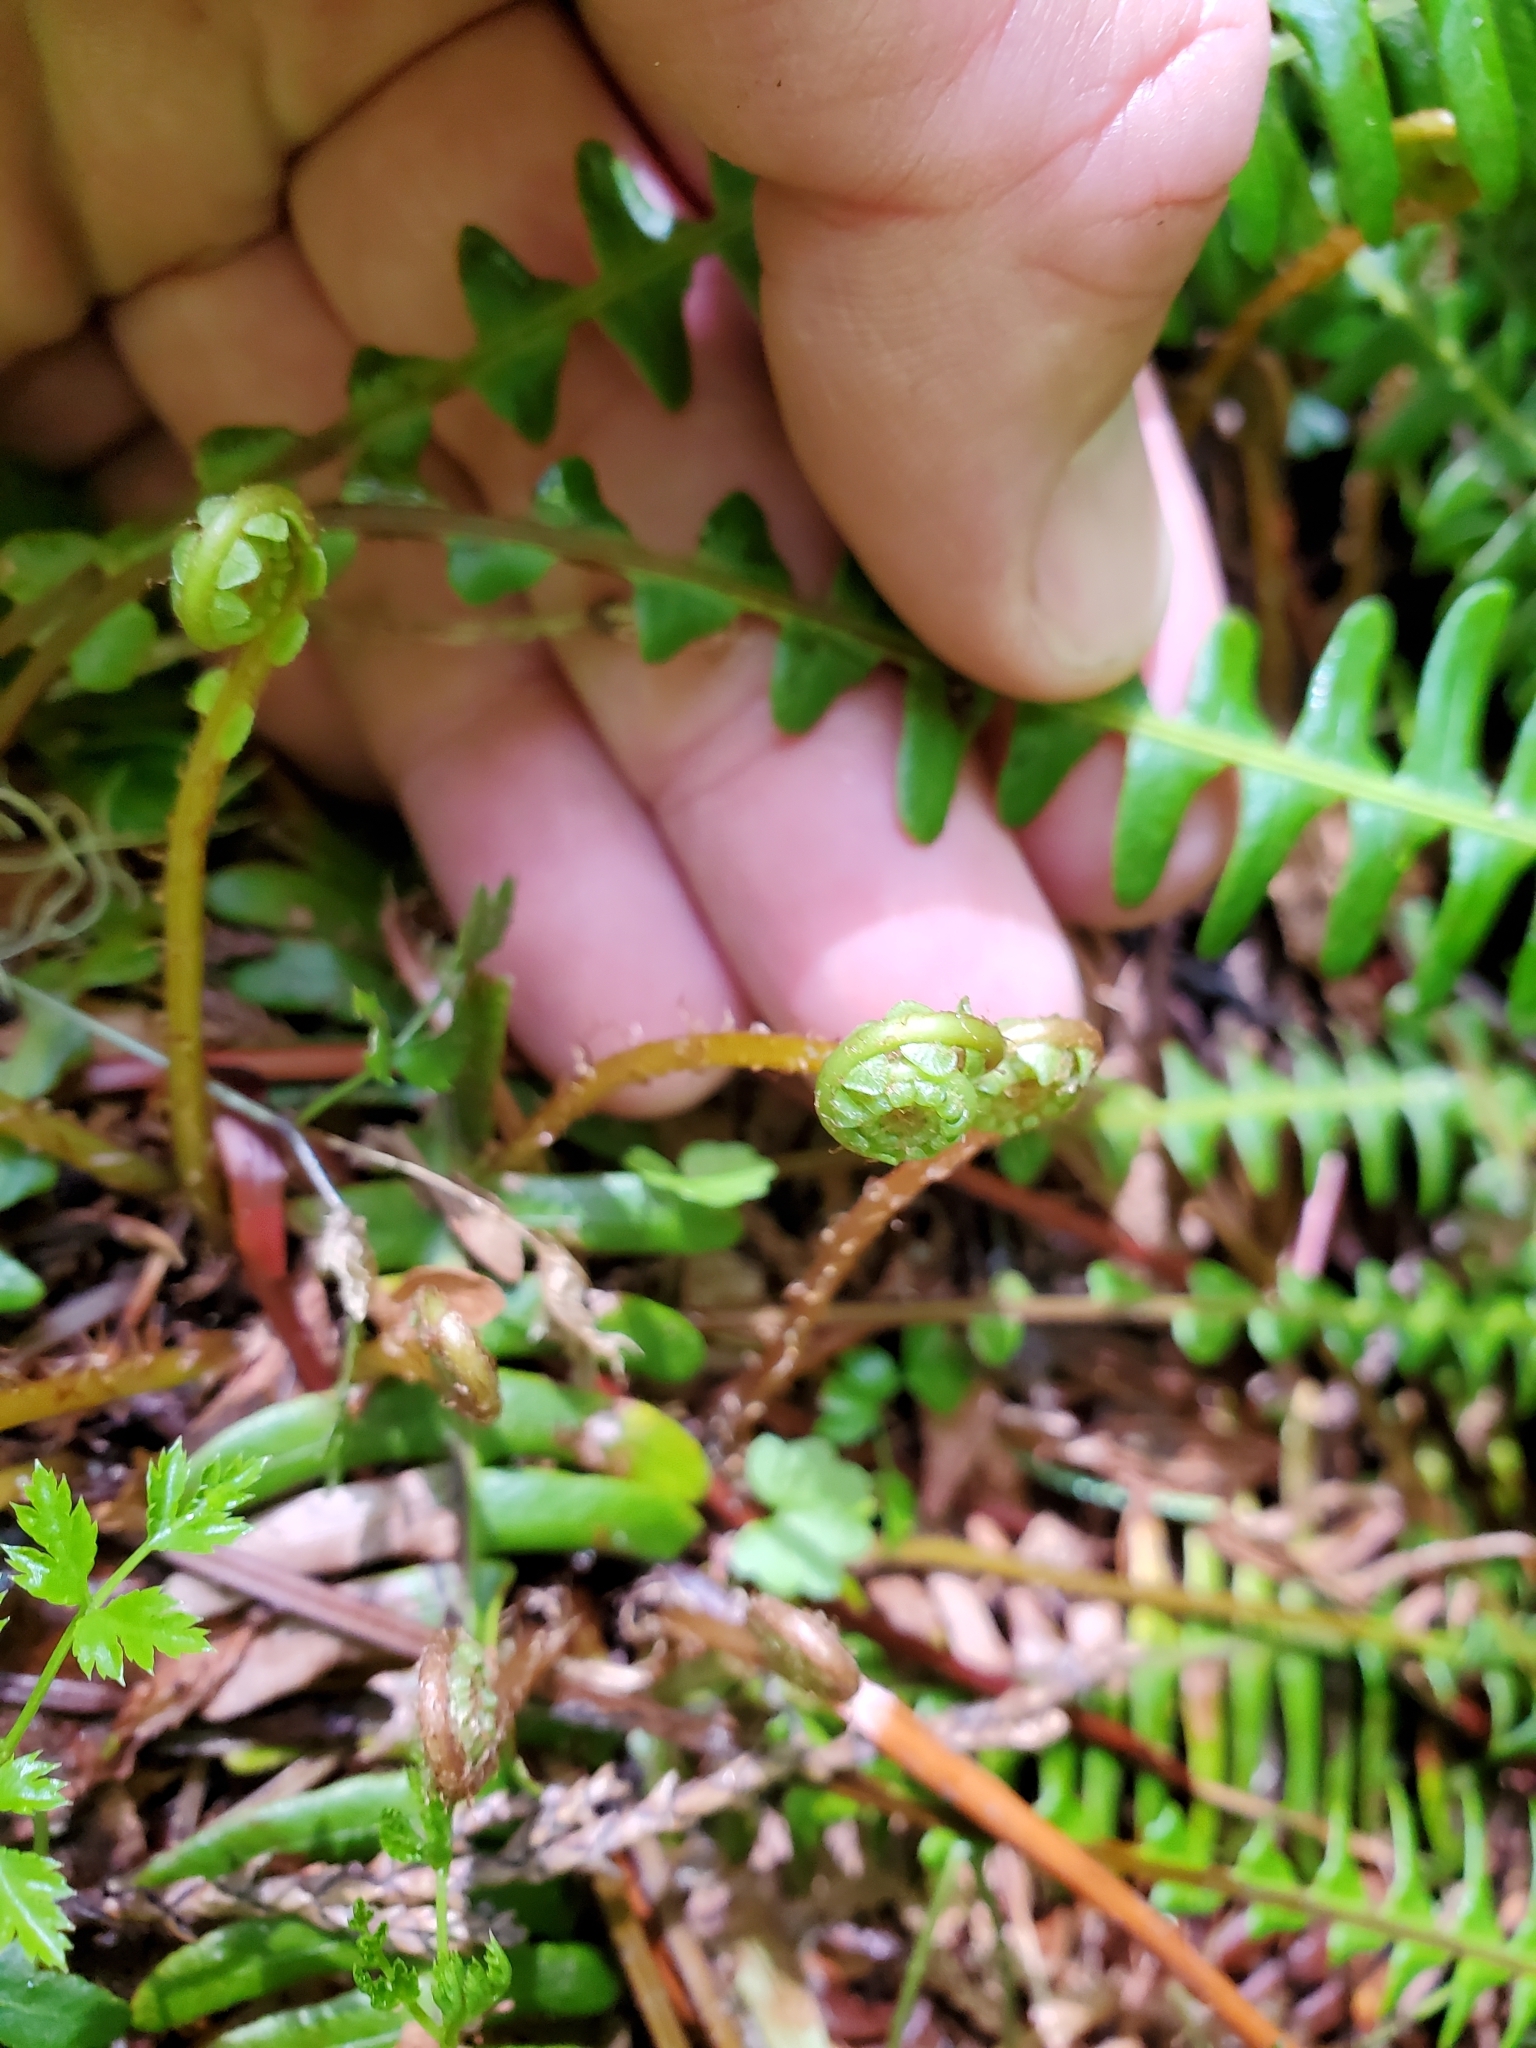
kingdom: Plantae
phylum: Tracheophyta
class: Polypodiopsida
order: Polypodiales
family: Blechnaceae
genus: Struthiopteris
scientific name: Struthiopteris spicant
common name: Deer fern
